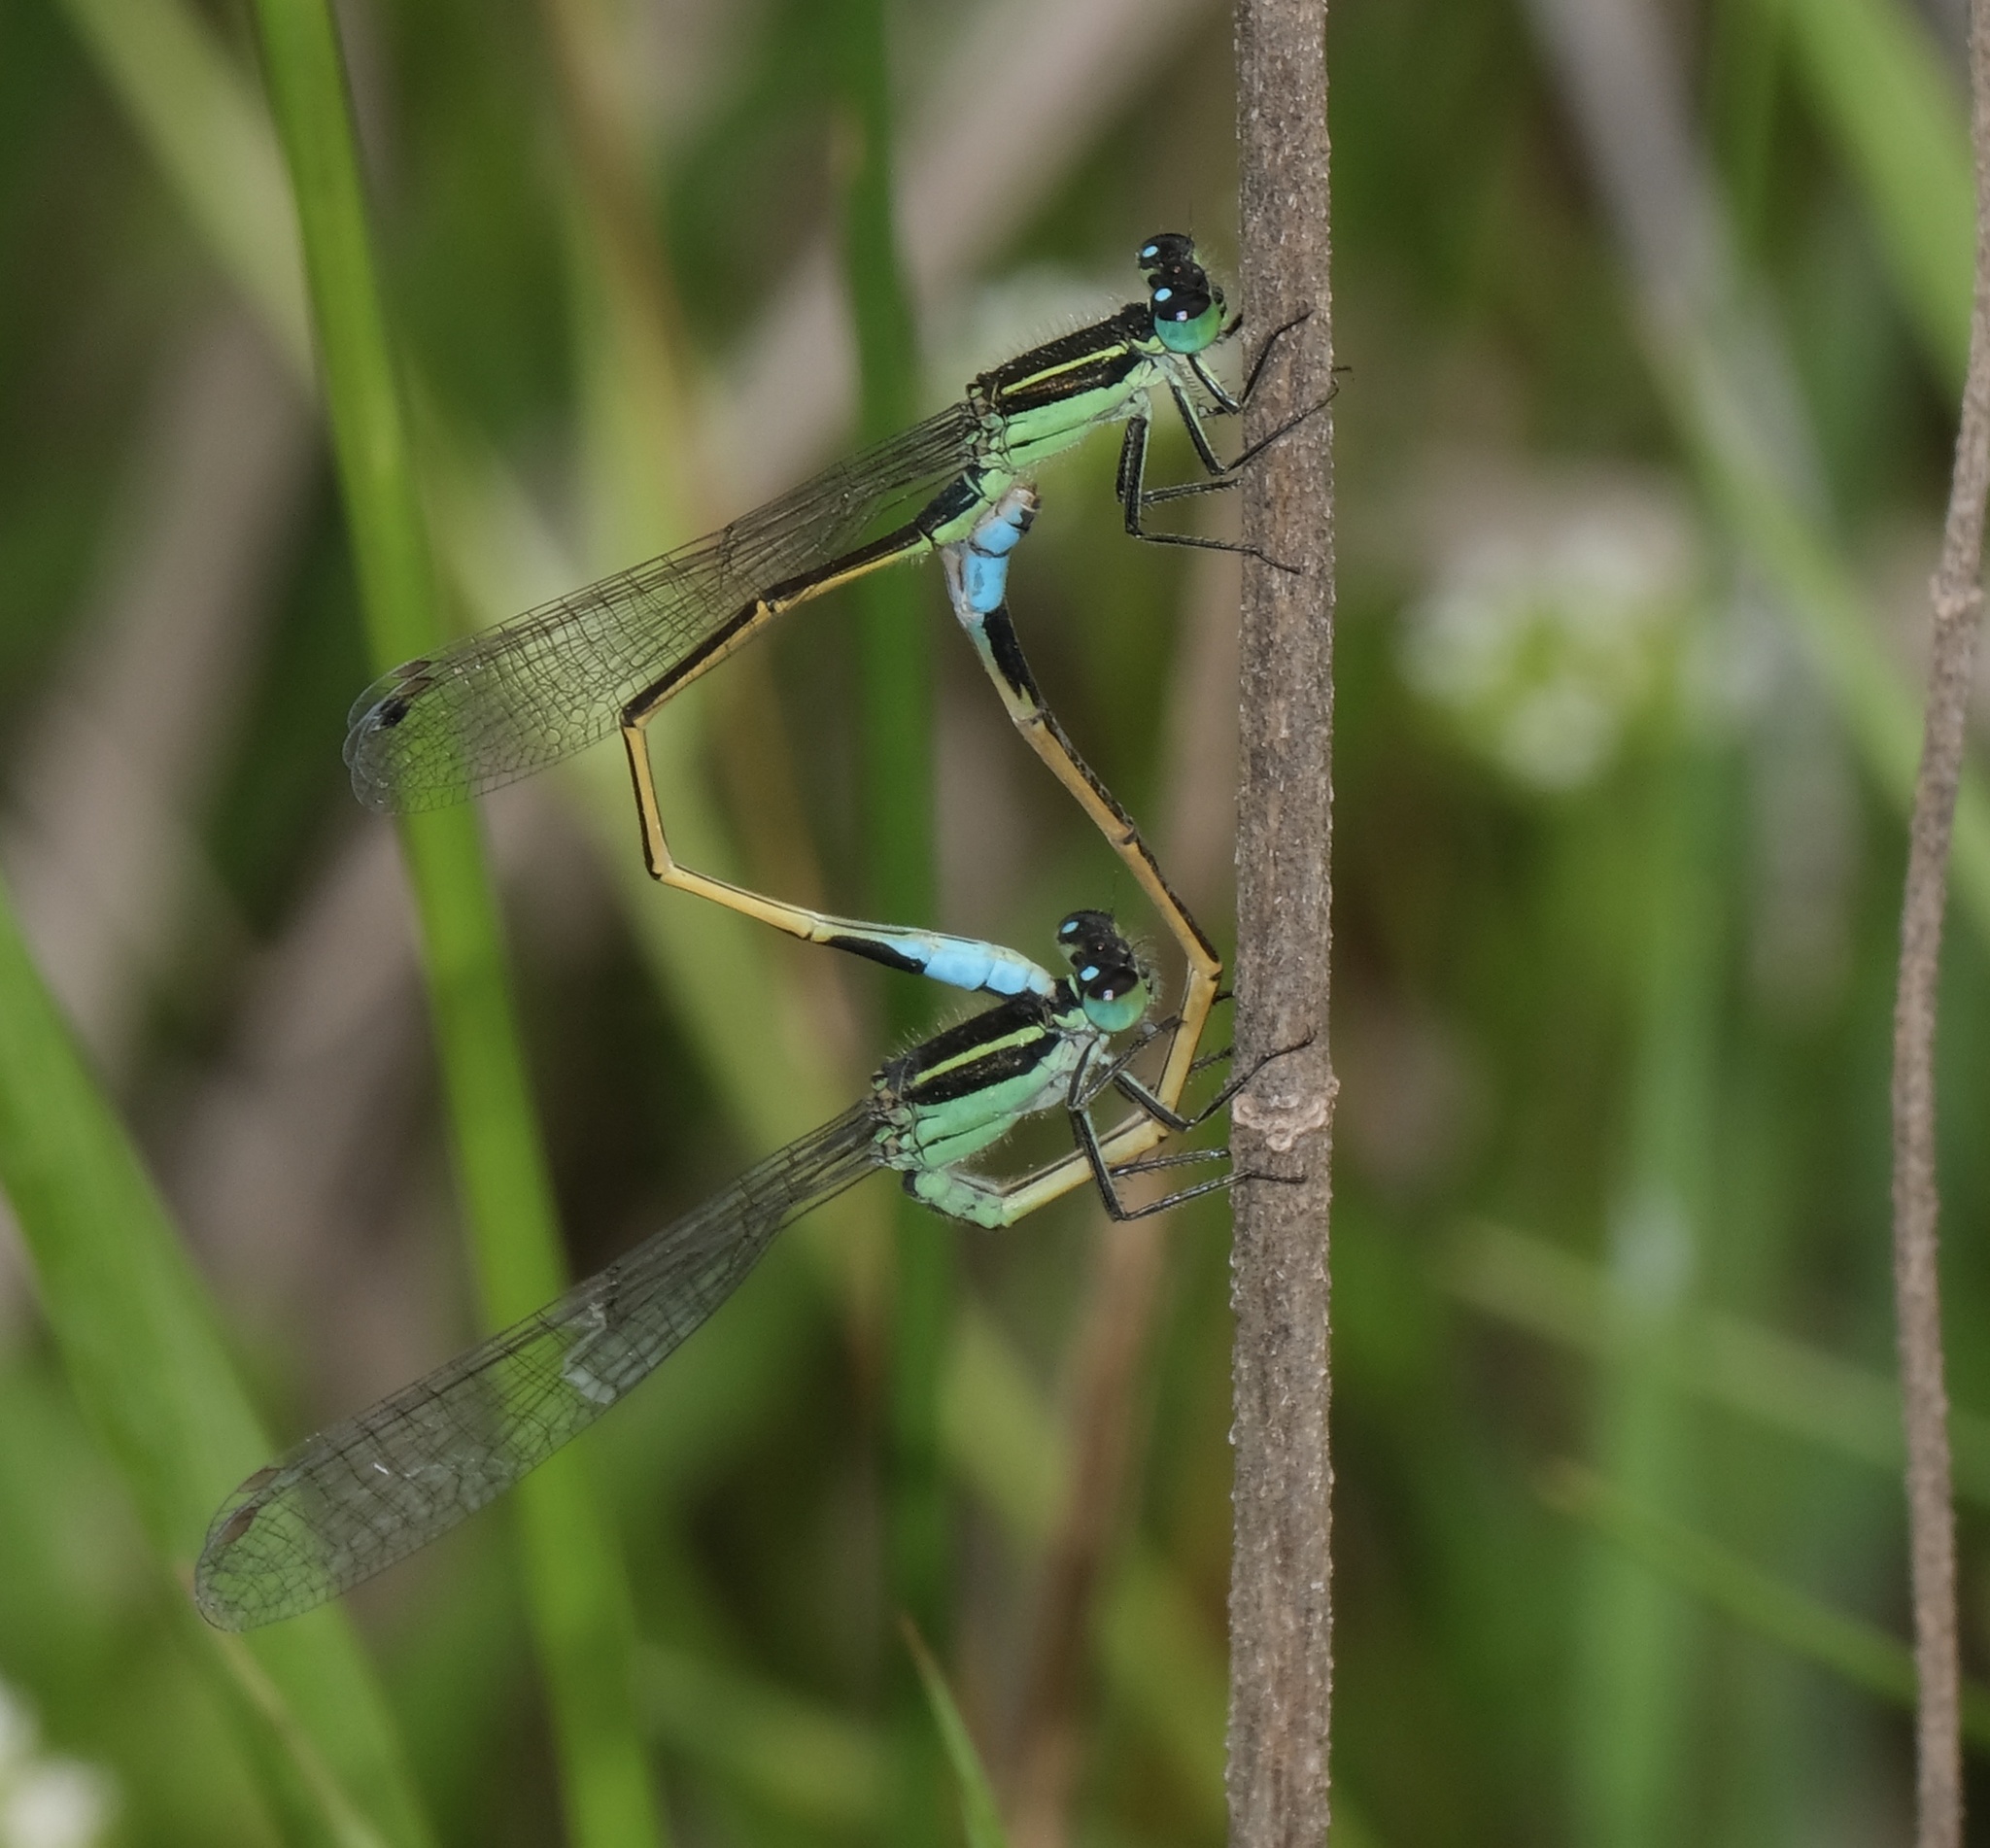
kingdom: Animalia
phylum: Arthropoda
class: Insecta
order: Odonata
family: Coenagrionidae
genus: Ischnura
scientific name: Ischnura ramburii
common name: Rambur's forktail
